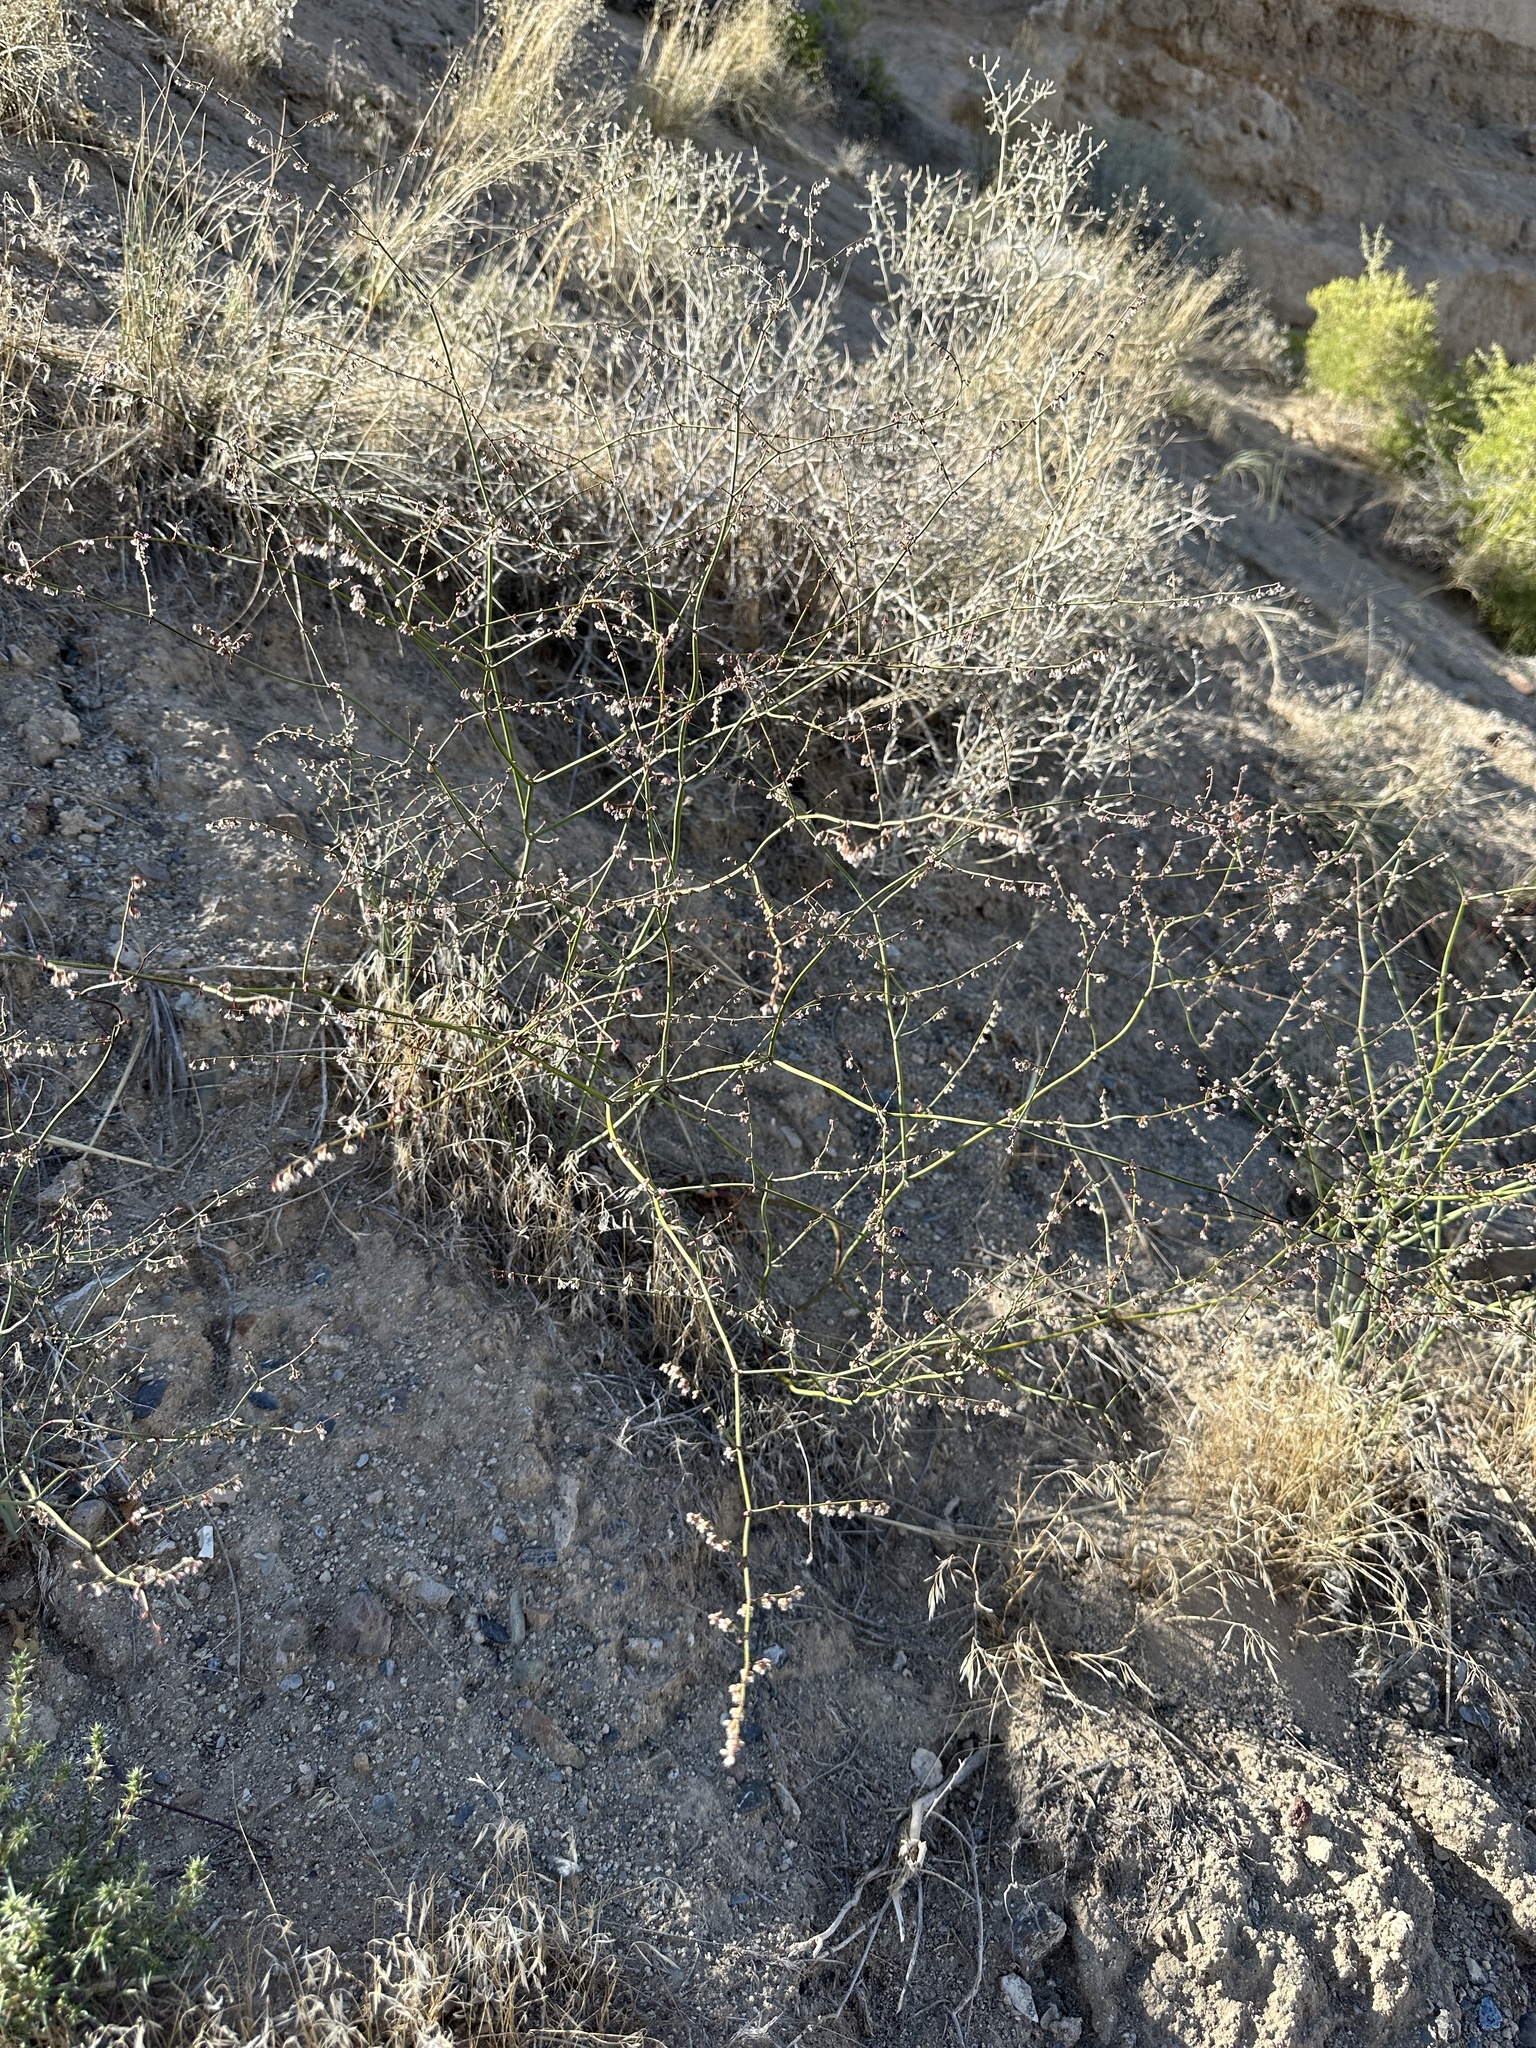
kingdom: Plantae
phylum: Tracheophyta
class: Magnoliopsida
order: Caryophyllales
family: Polygonaceae
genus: Eriogonum
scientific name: Eriogonum deflexum
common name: Skeleton-weed
